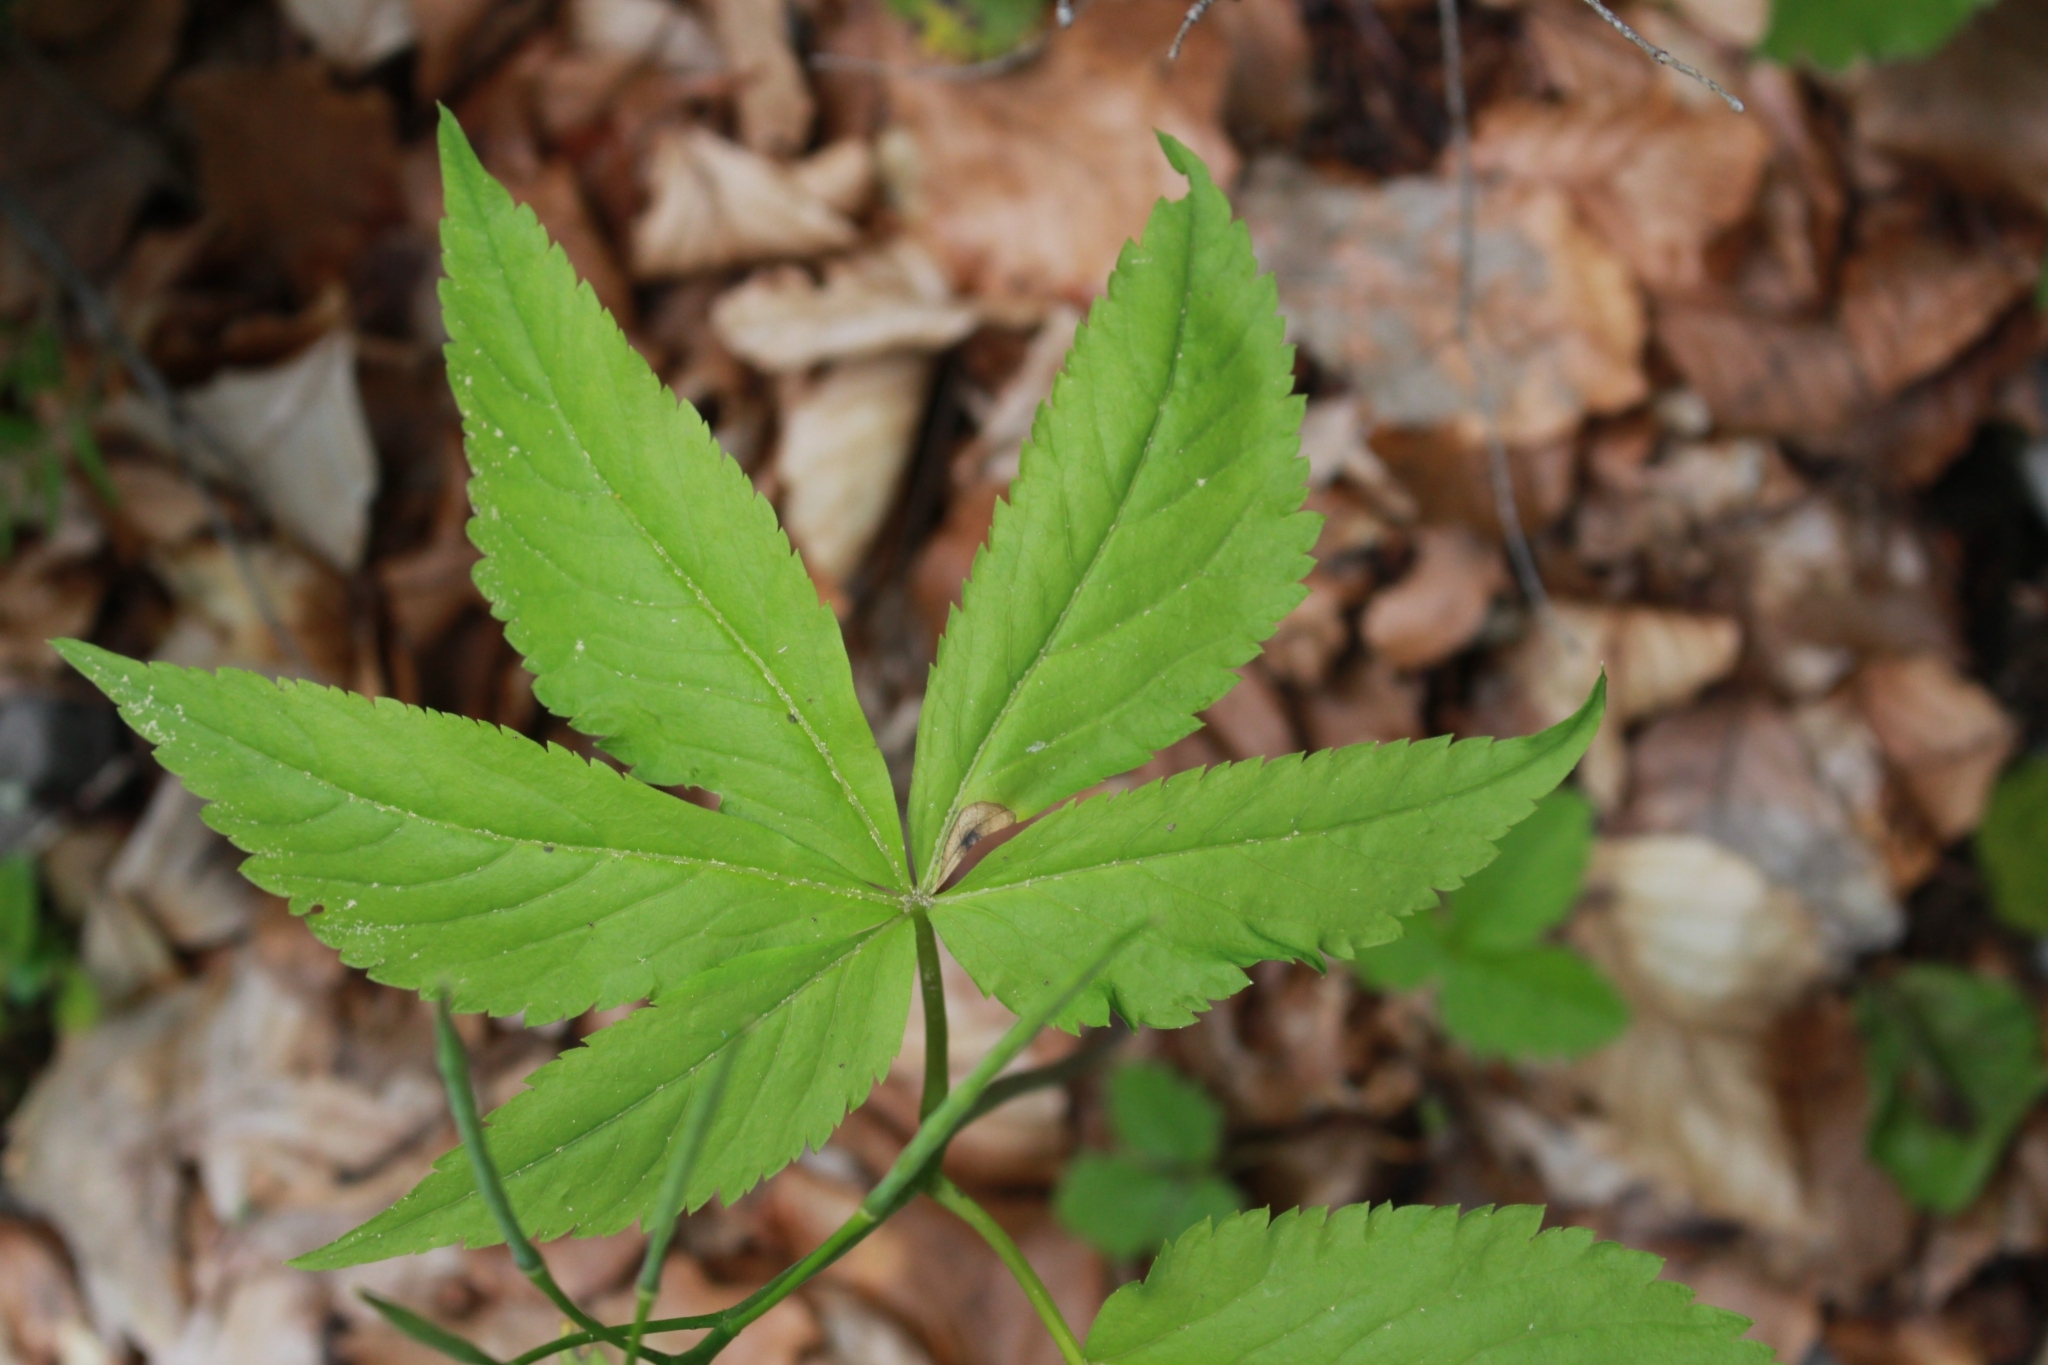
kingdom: Plantae
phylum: Tracheophyta
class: Magnoliopsida
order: Brassicales
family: Brassicaceae
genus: Cardamine
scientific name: Cardamine pentaphyllos
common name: Five-leaflet bitter-cress
